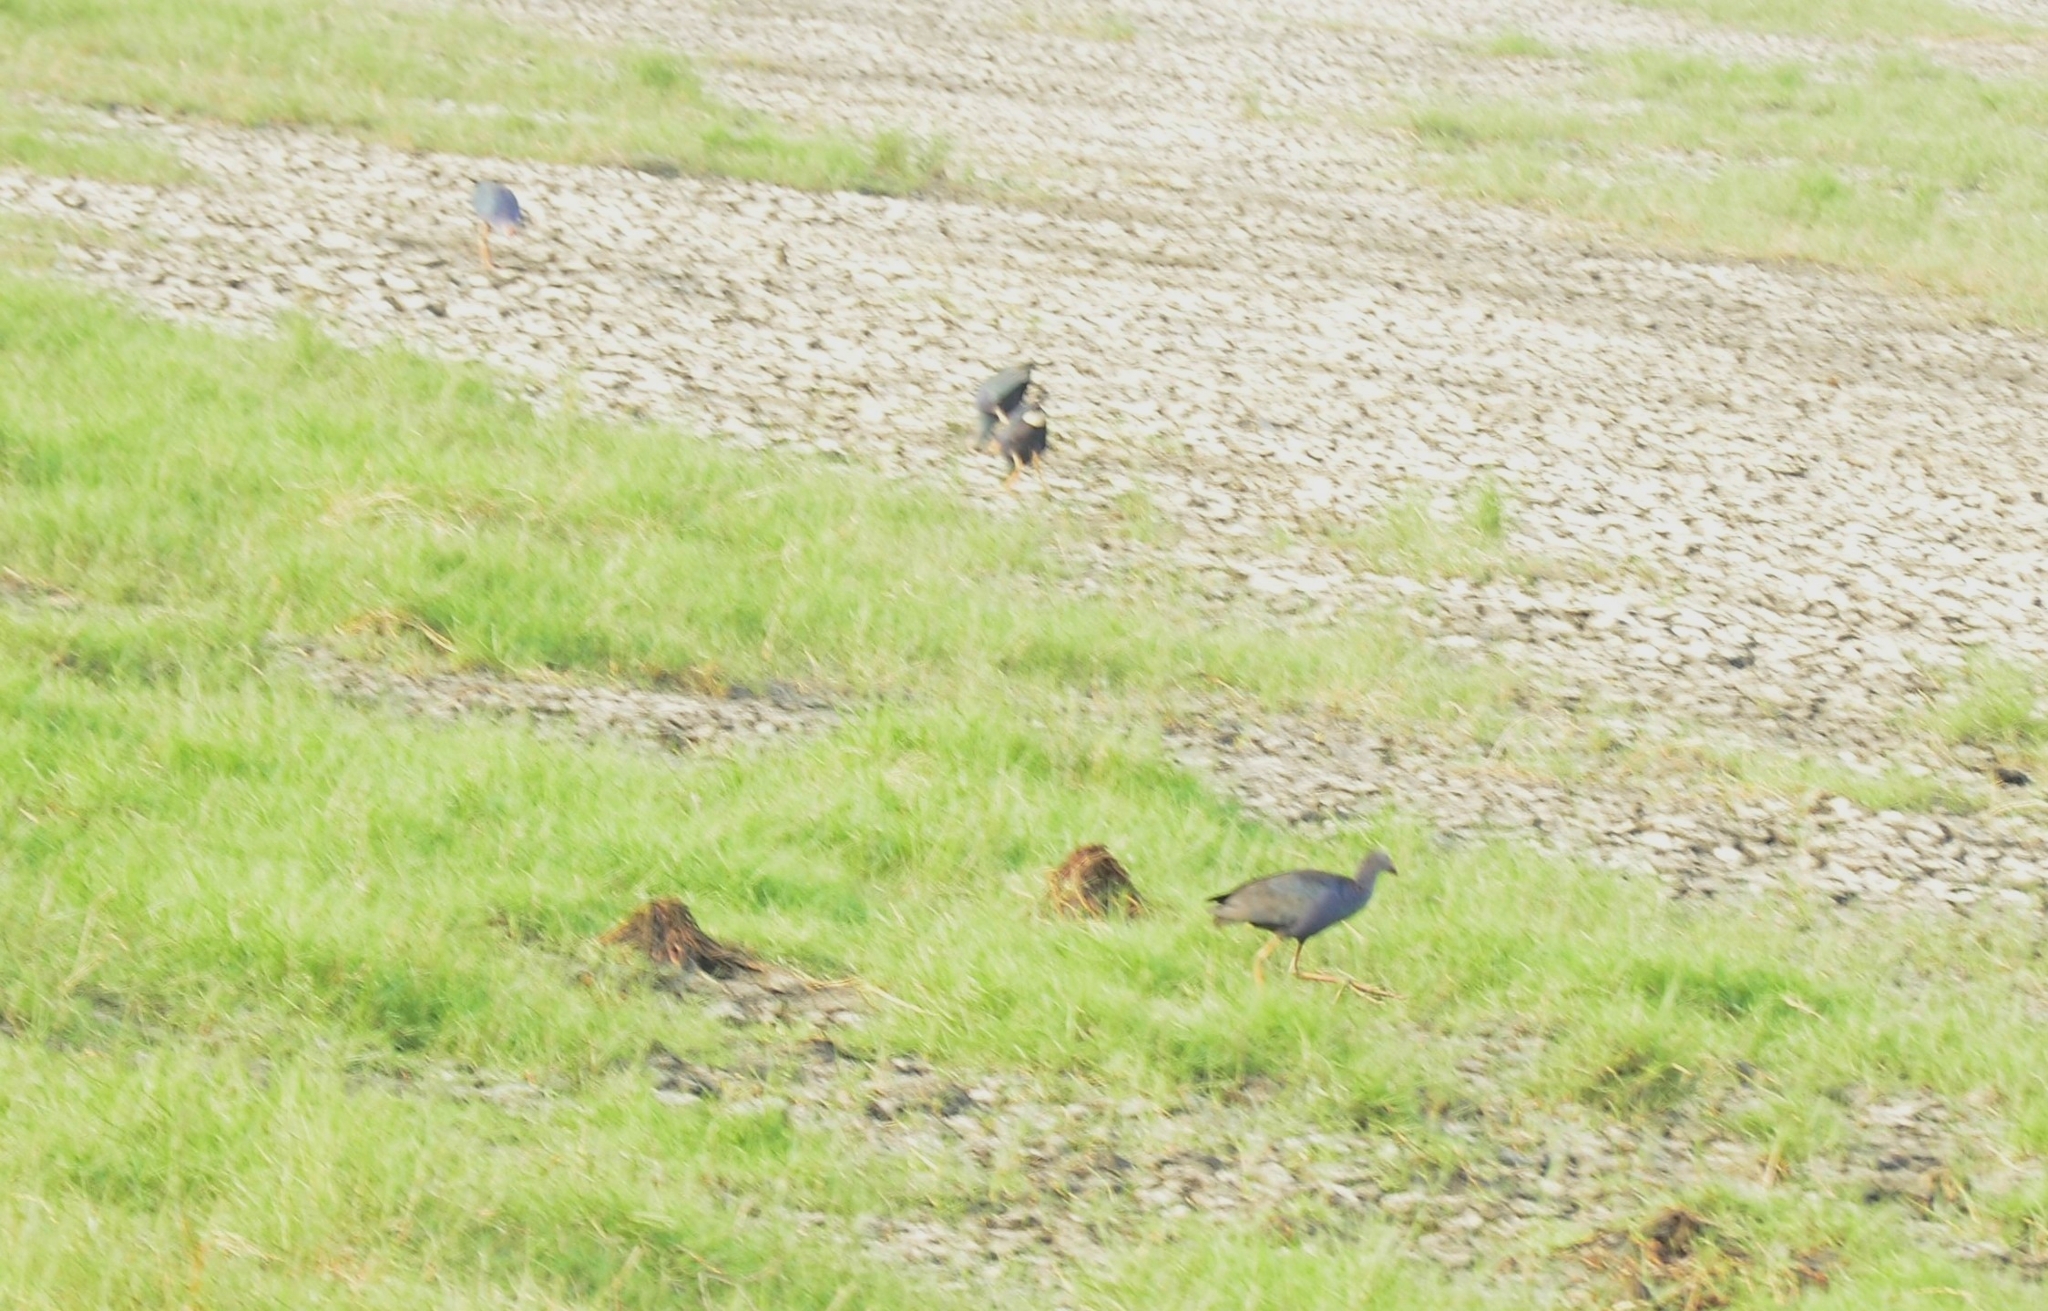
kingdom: Animalia
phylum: Chordata
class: Aves
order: Gruiformes
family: Rallidae
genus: Porphyrio
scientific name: Porphyrio porphyrio
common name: Purple swamphen
